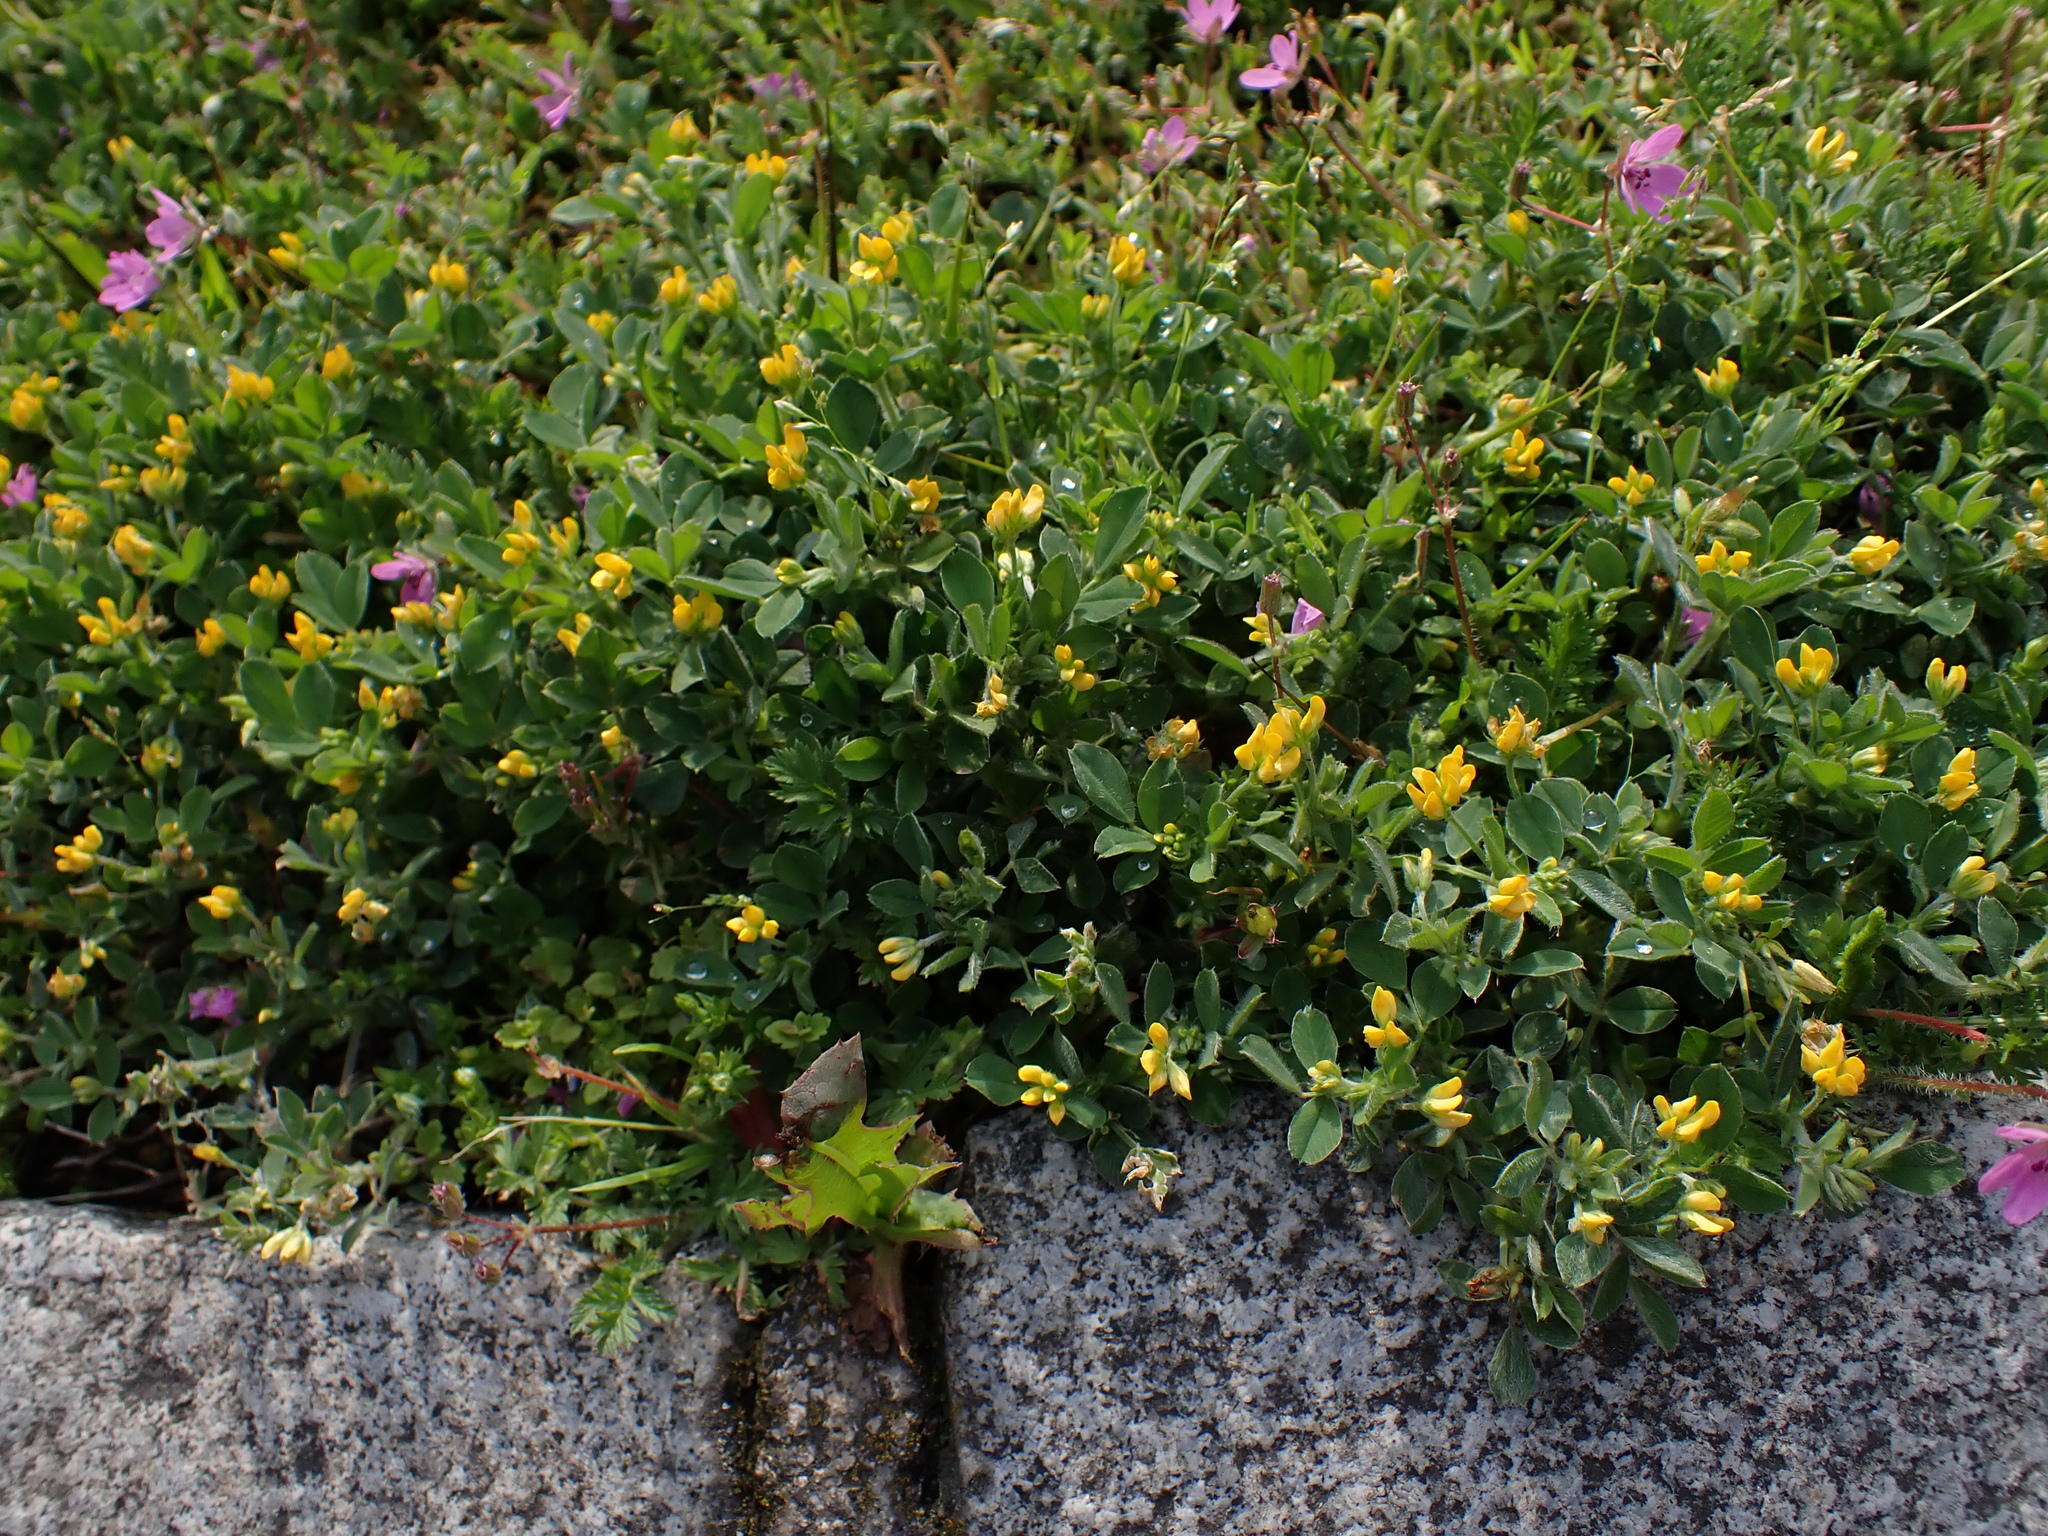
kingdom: Plantae
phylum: Tracheophyta
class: Magnoliopsida
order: Fabales
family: Fabaceae
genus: Medicago
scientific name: Medicago minima
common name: Little bur-clover
